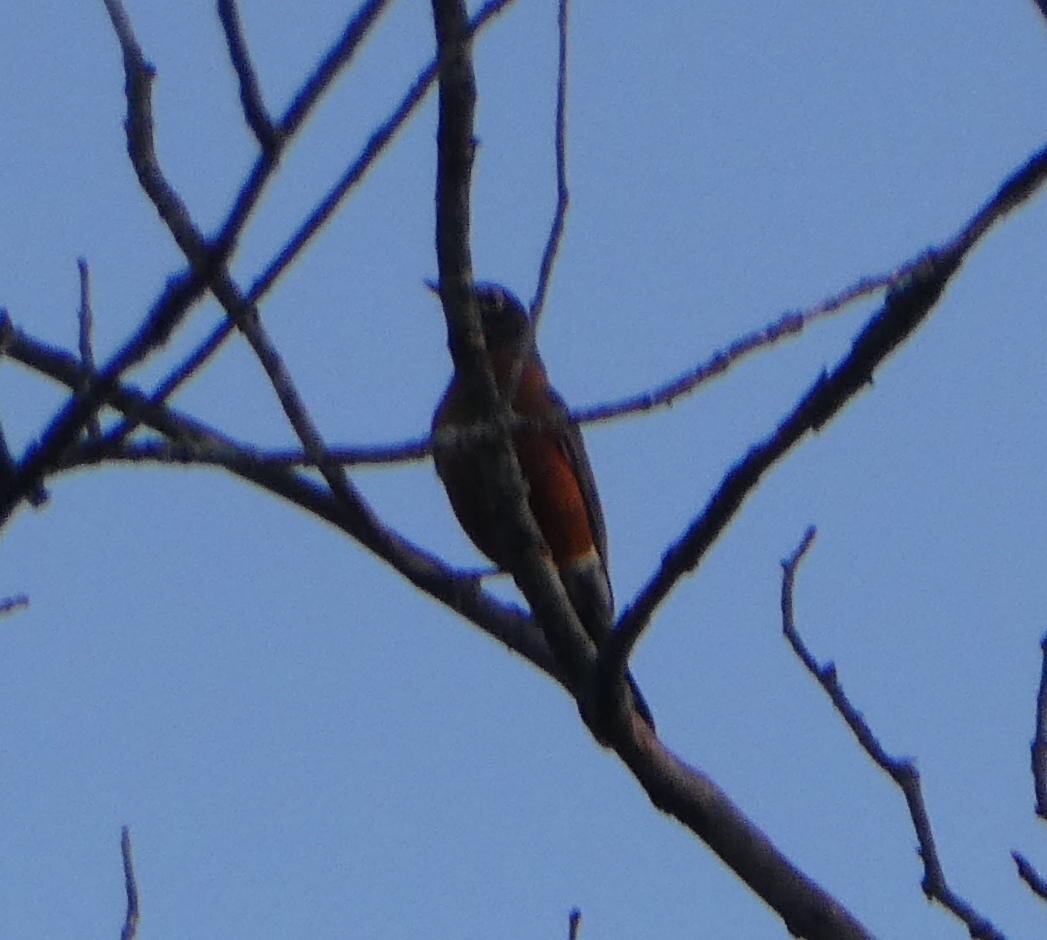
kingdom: Animalia
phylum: Chordata
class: Aves
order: Passeriformes
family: Turdidae
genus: Turdus
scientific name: Turdus migratorius
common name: American robin
